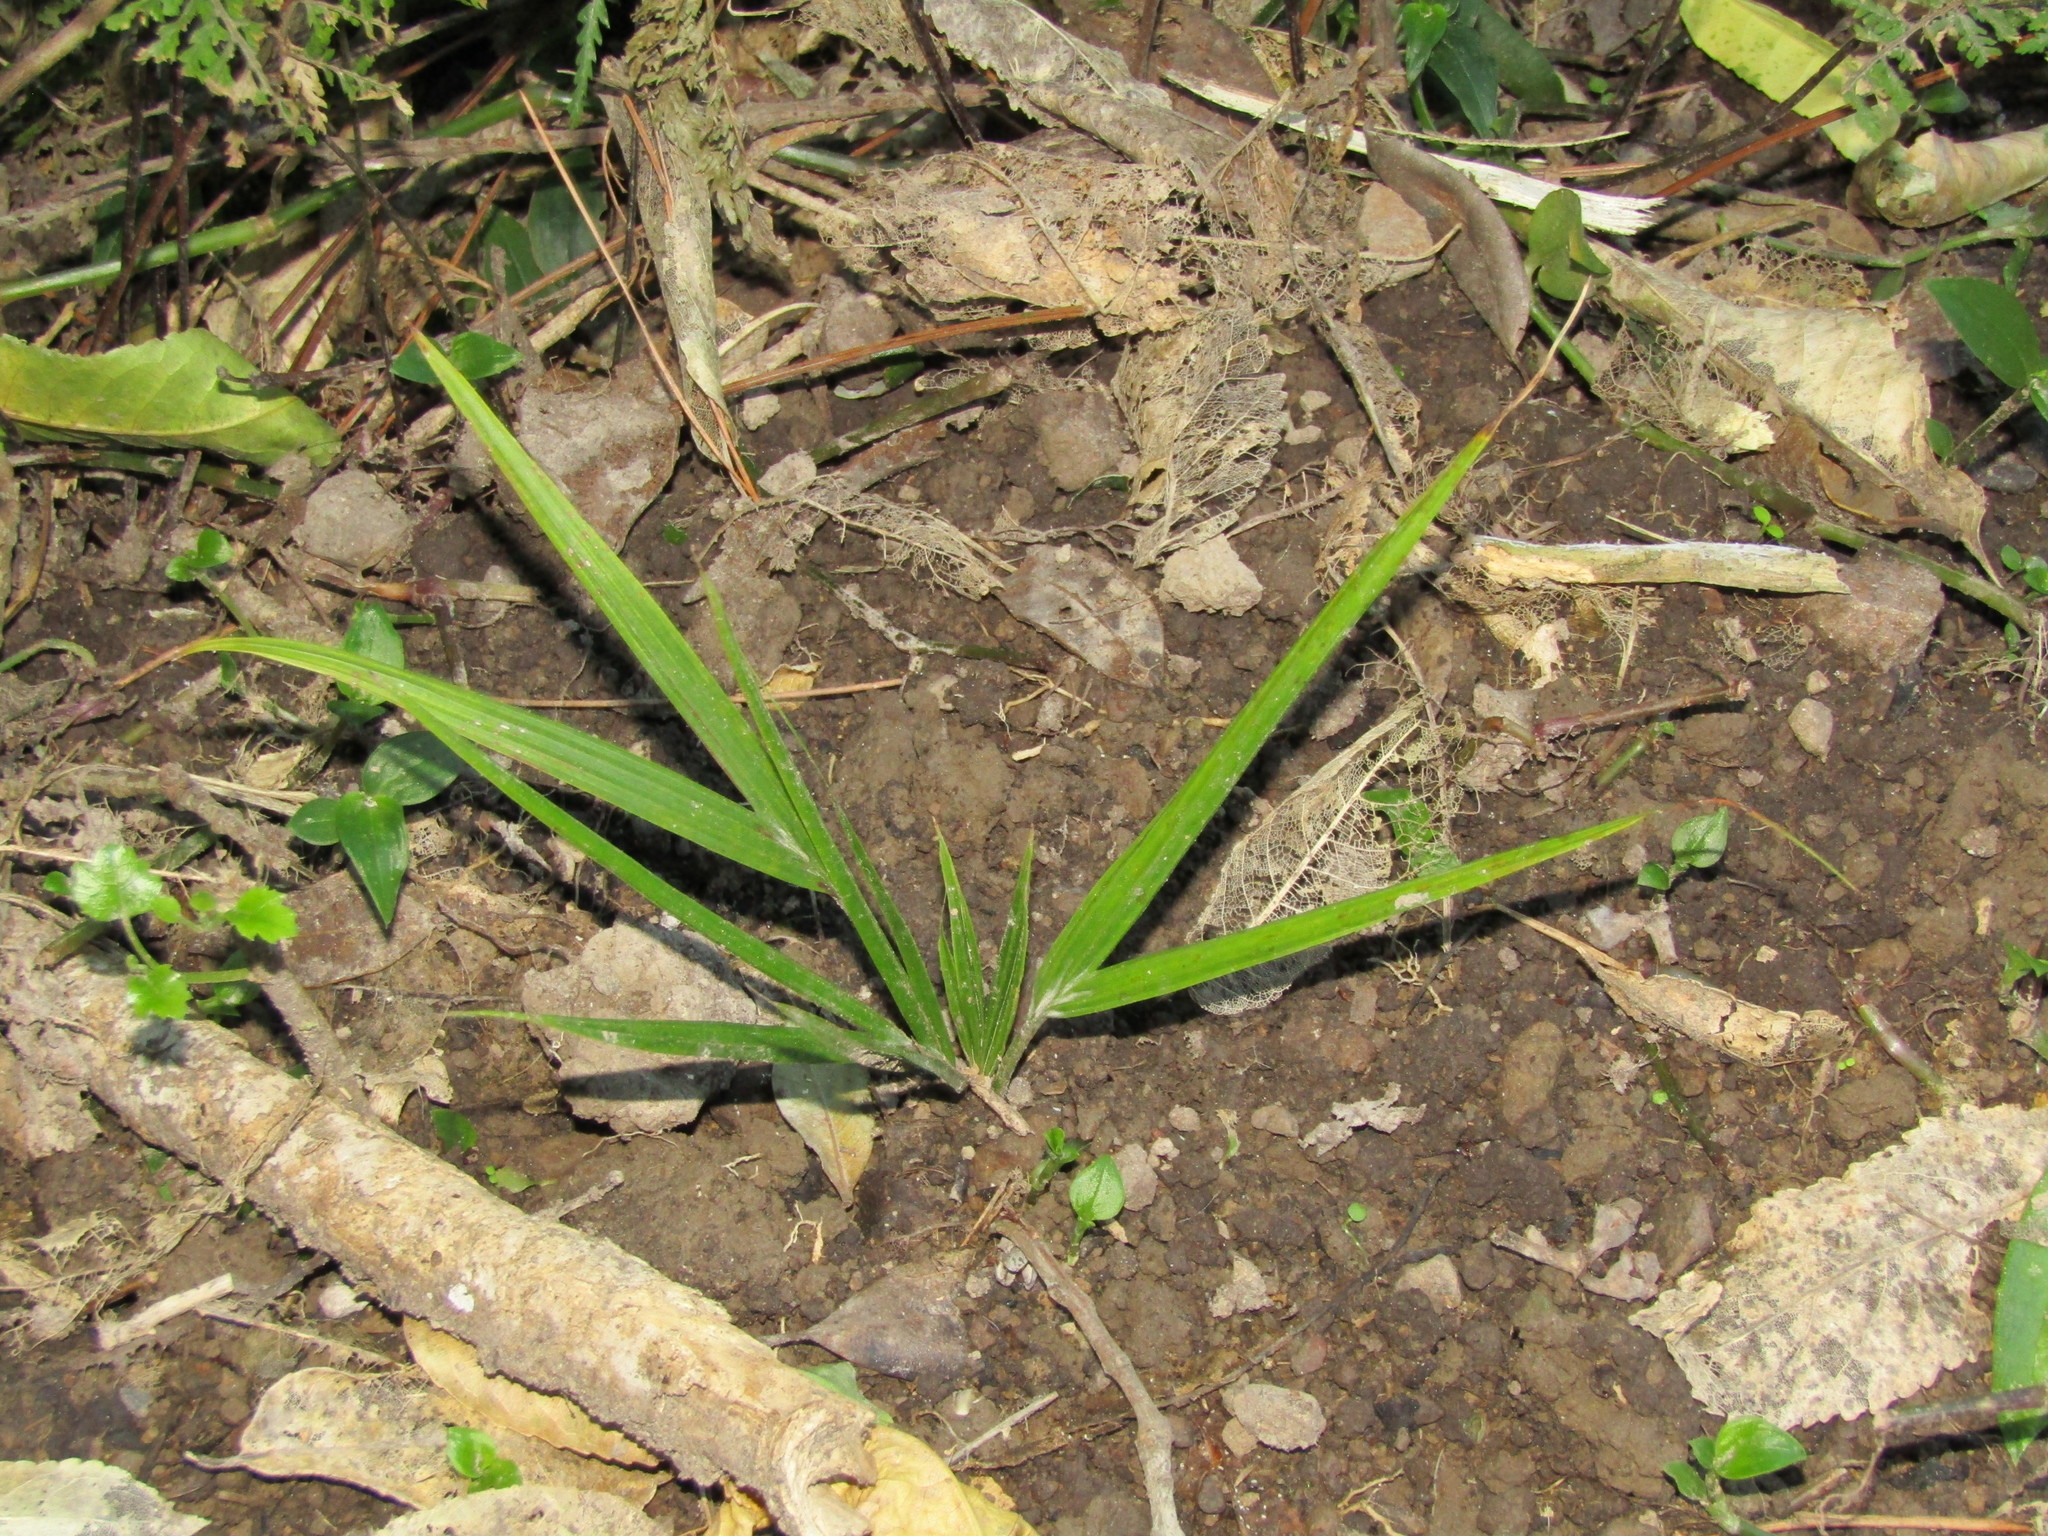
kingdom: Plantae
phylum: Tracheophyta
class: Liliopsida
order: Arecales
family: Arecaceae
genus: Rhopalostylis
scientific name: Rhopalostylis sapida
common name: Feather-duster palm
